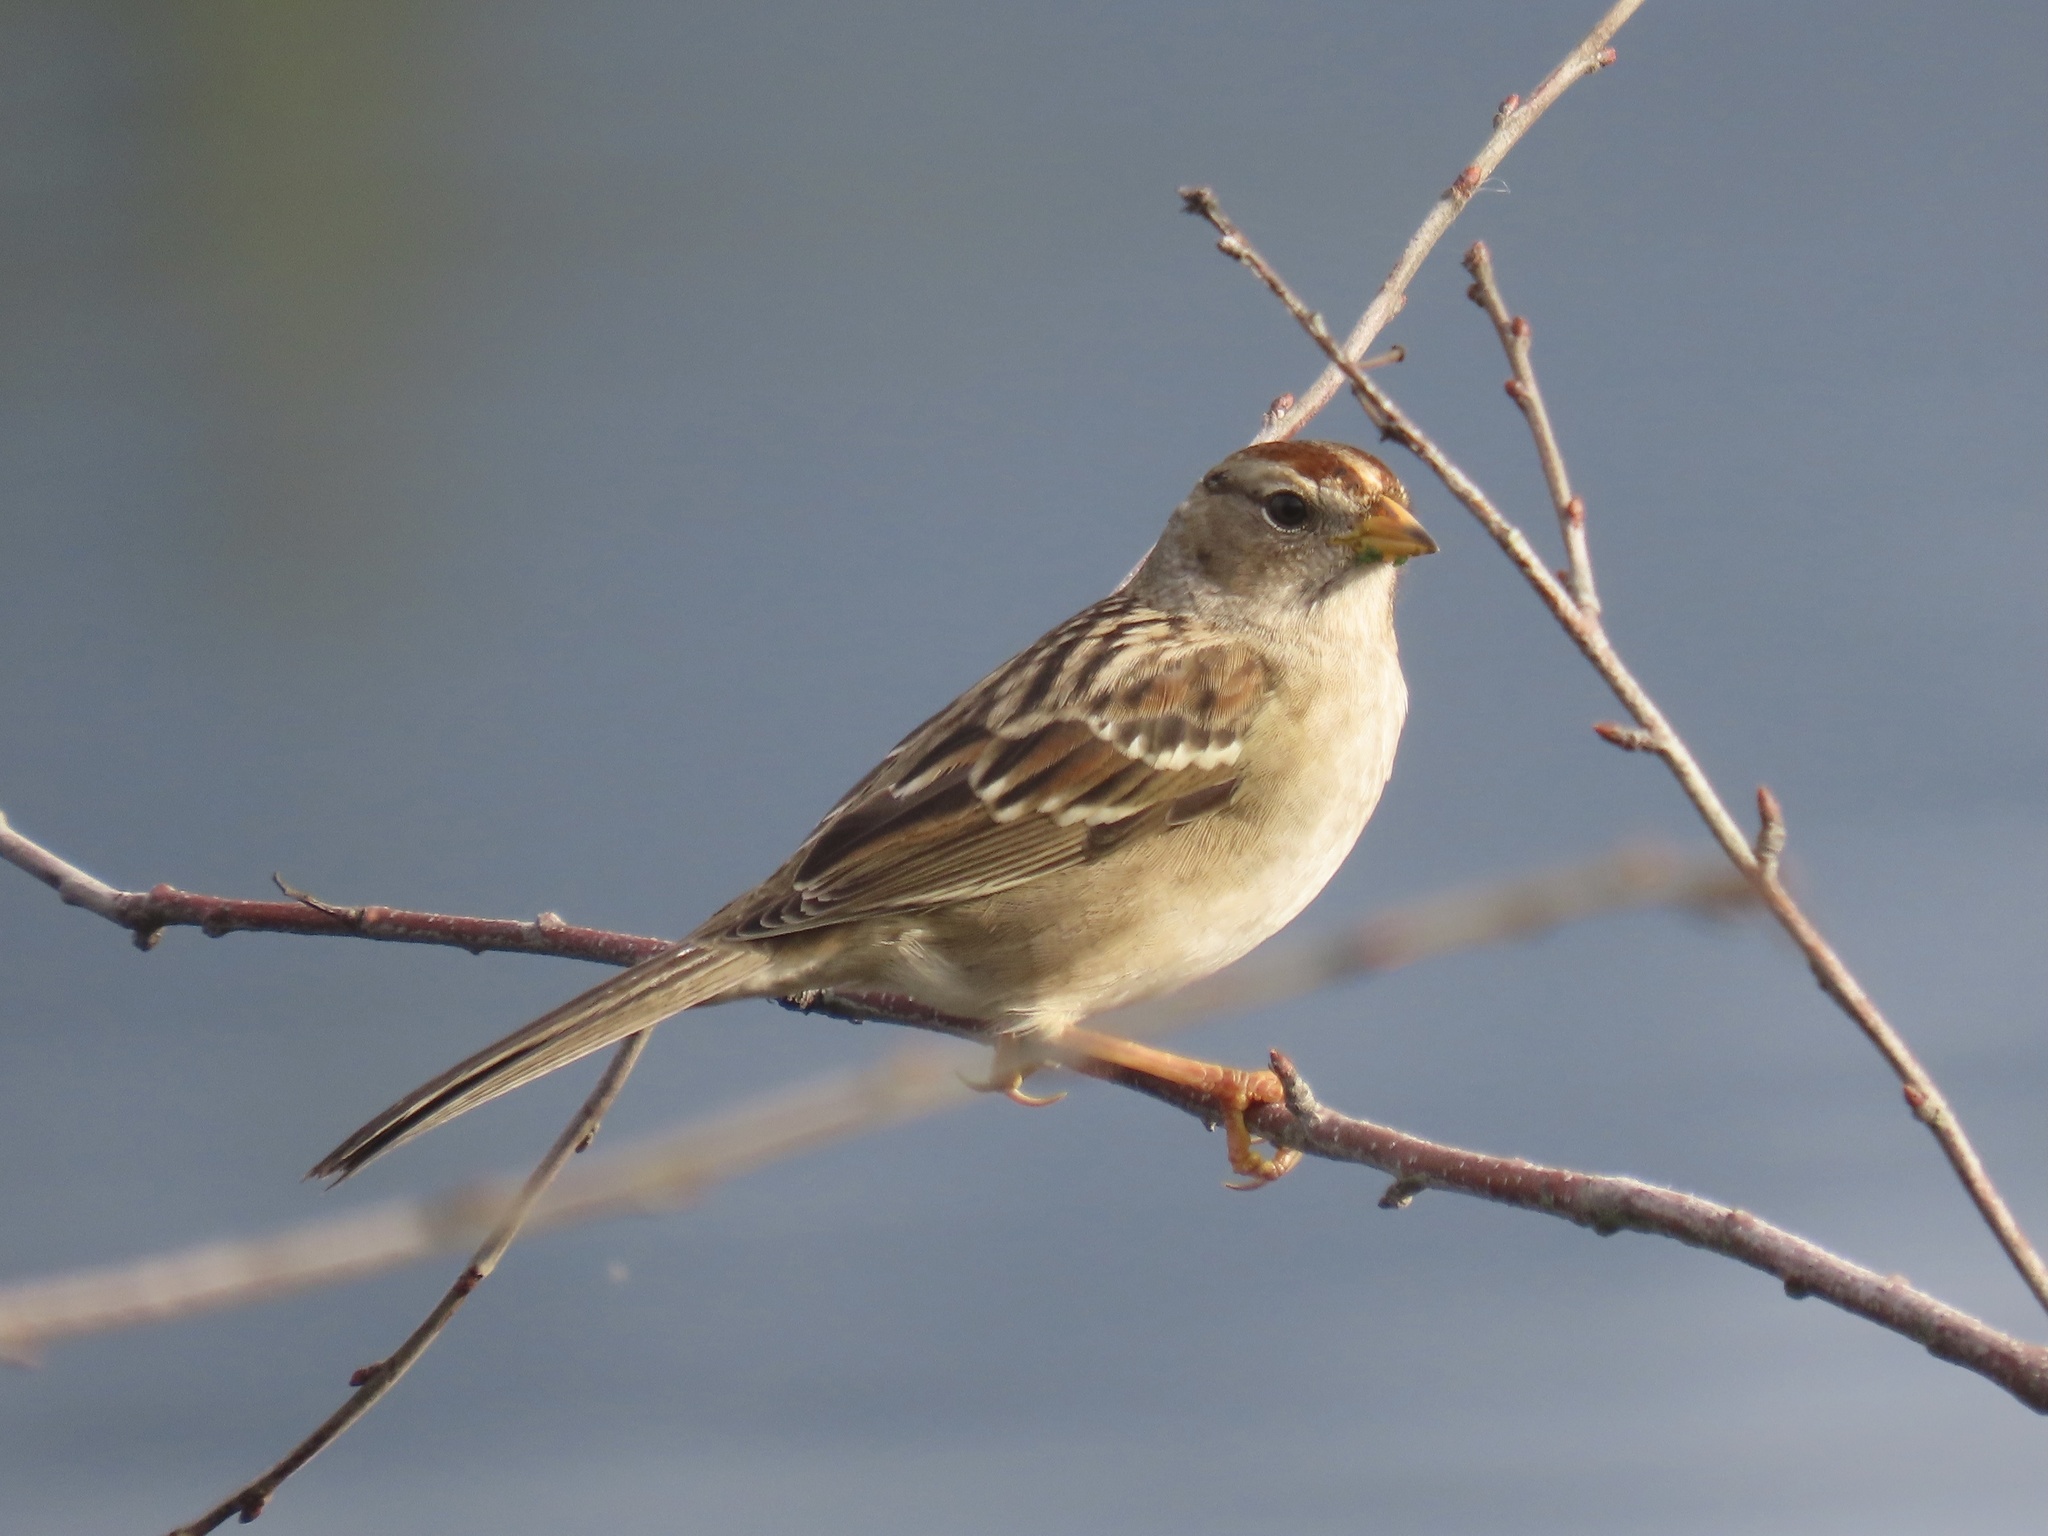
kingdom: Animalia
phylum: Chordata
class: Aves
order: Passeriformes
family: Passerellidae
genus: Zonotrichia
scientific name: Zonotrichia leucophrys
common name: White-crowned sparrow
